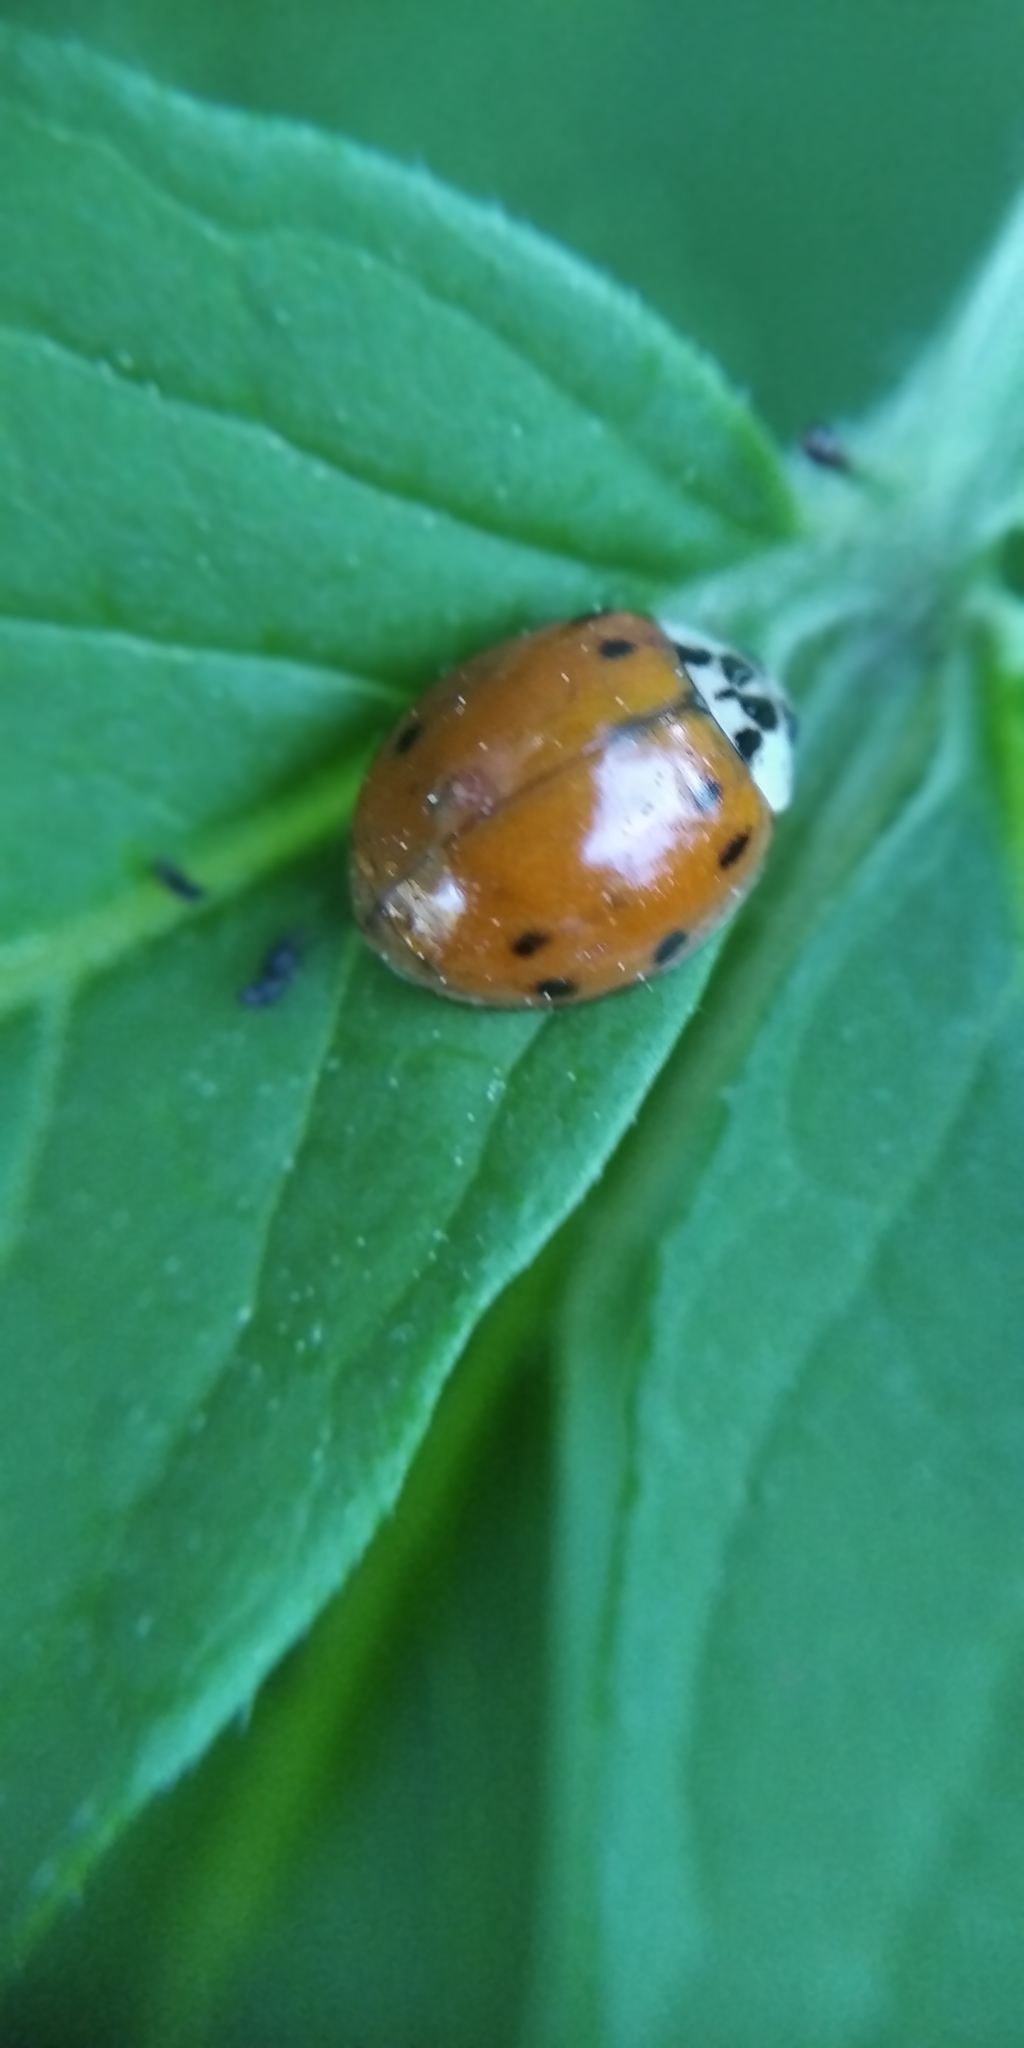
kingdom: Animalia
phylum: Arthropoda
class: Insecta
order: Coleoptera
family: Coccinellidae
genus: Harmonia
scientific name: Harmonia axyridis
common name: Harlequin ladybird
